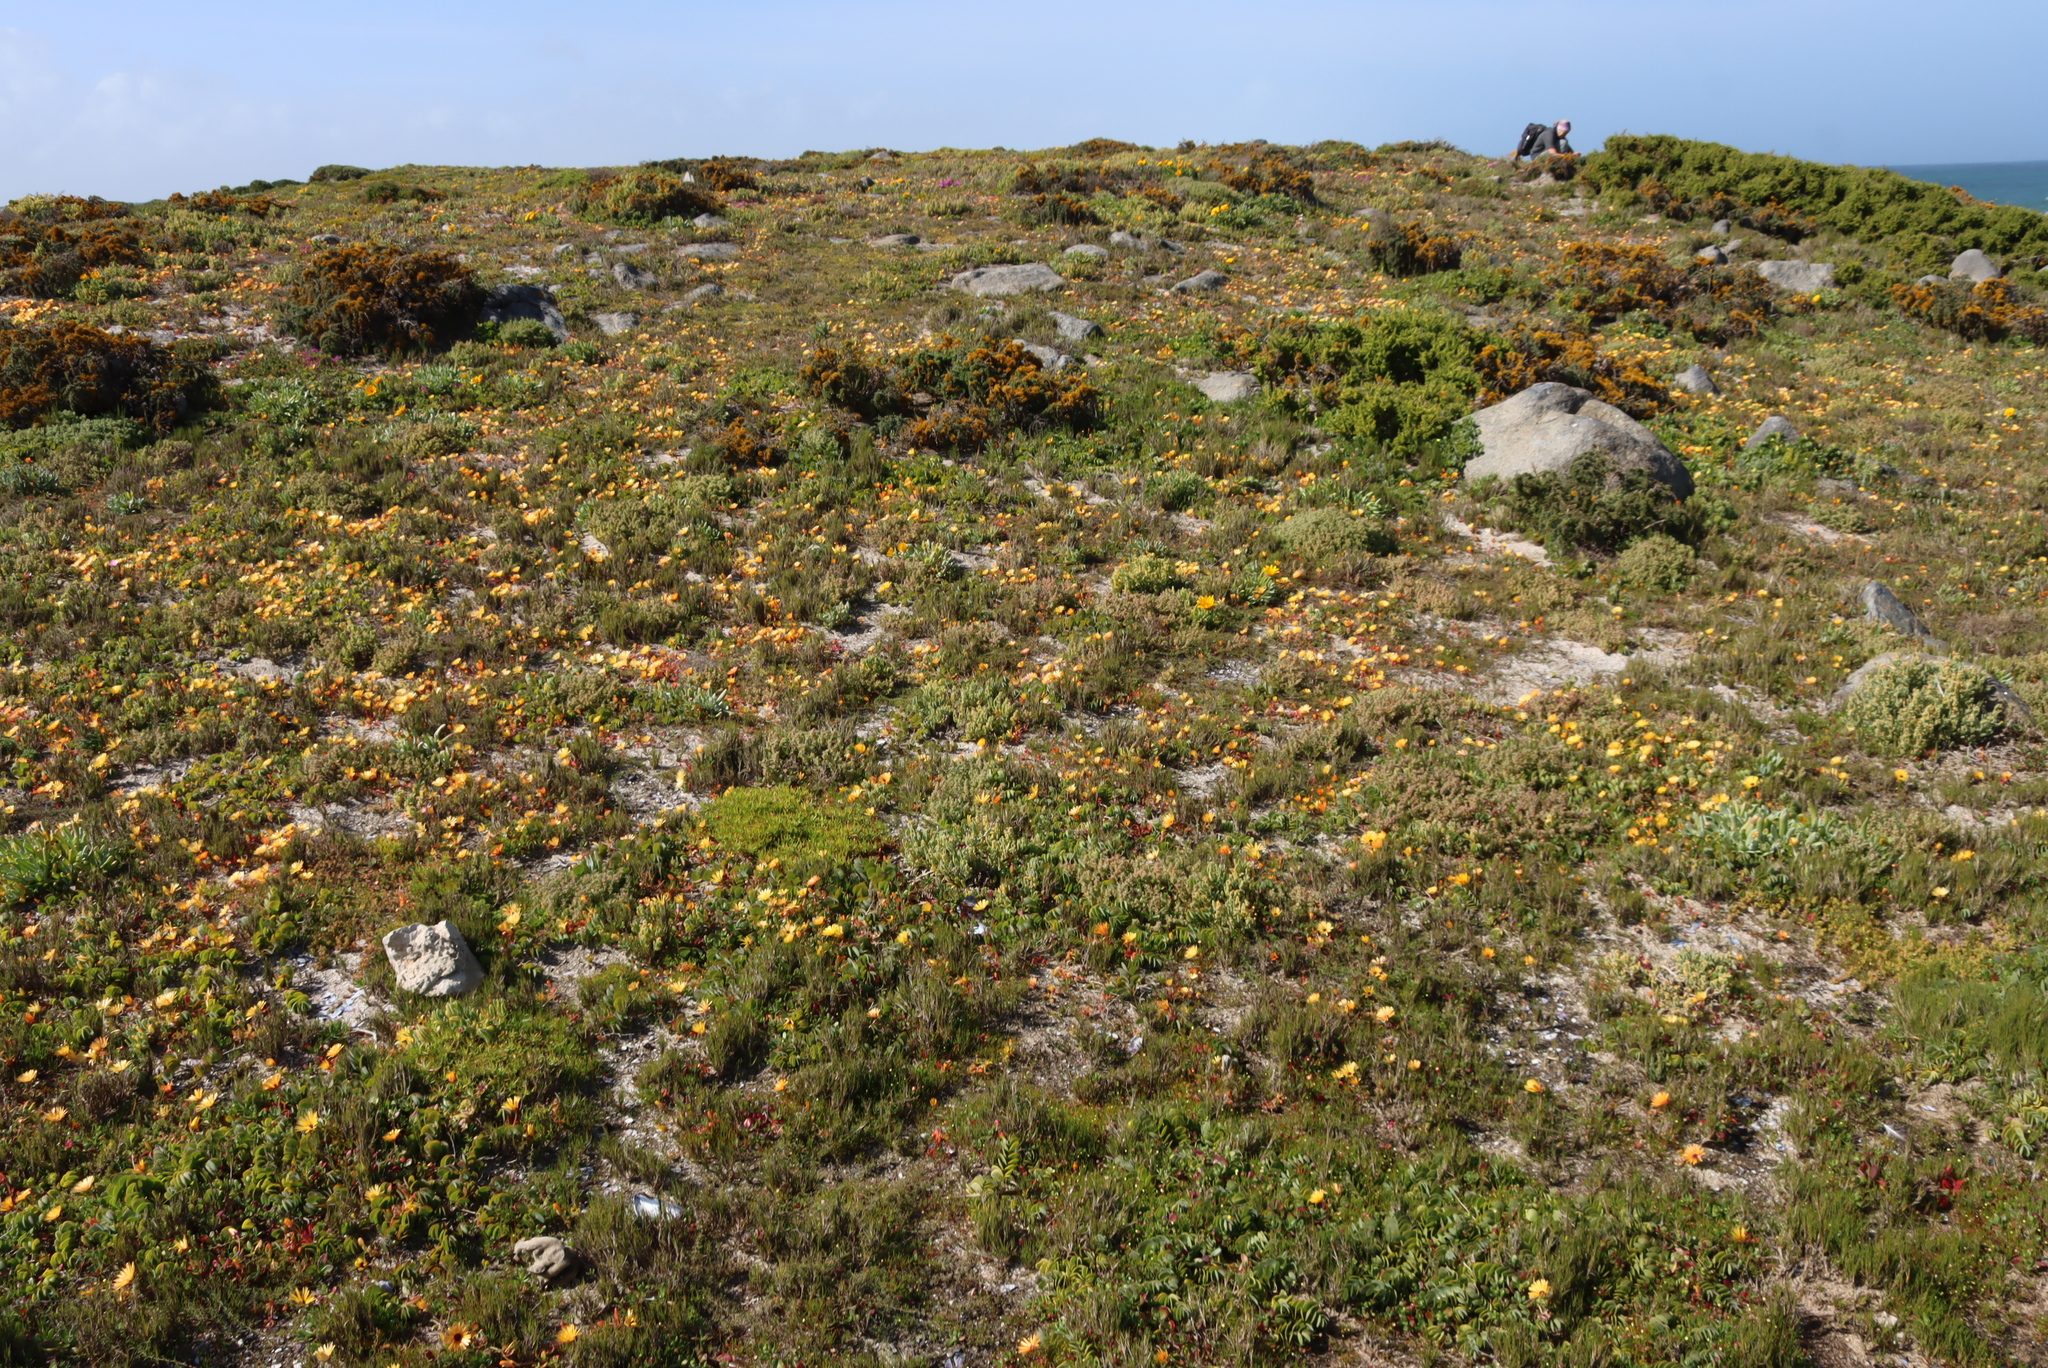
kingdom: Plantae
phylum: Tracheophyta
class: Magnoliopsida
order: Zygophyllales
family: Zygophyllaceae
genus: Roepera
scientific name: Roepera cordifolia
